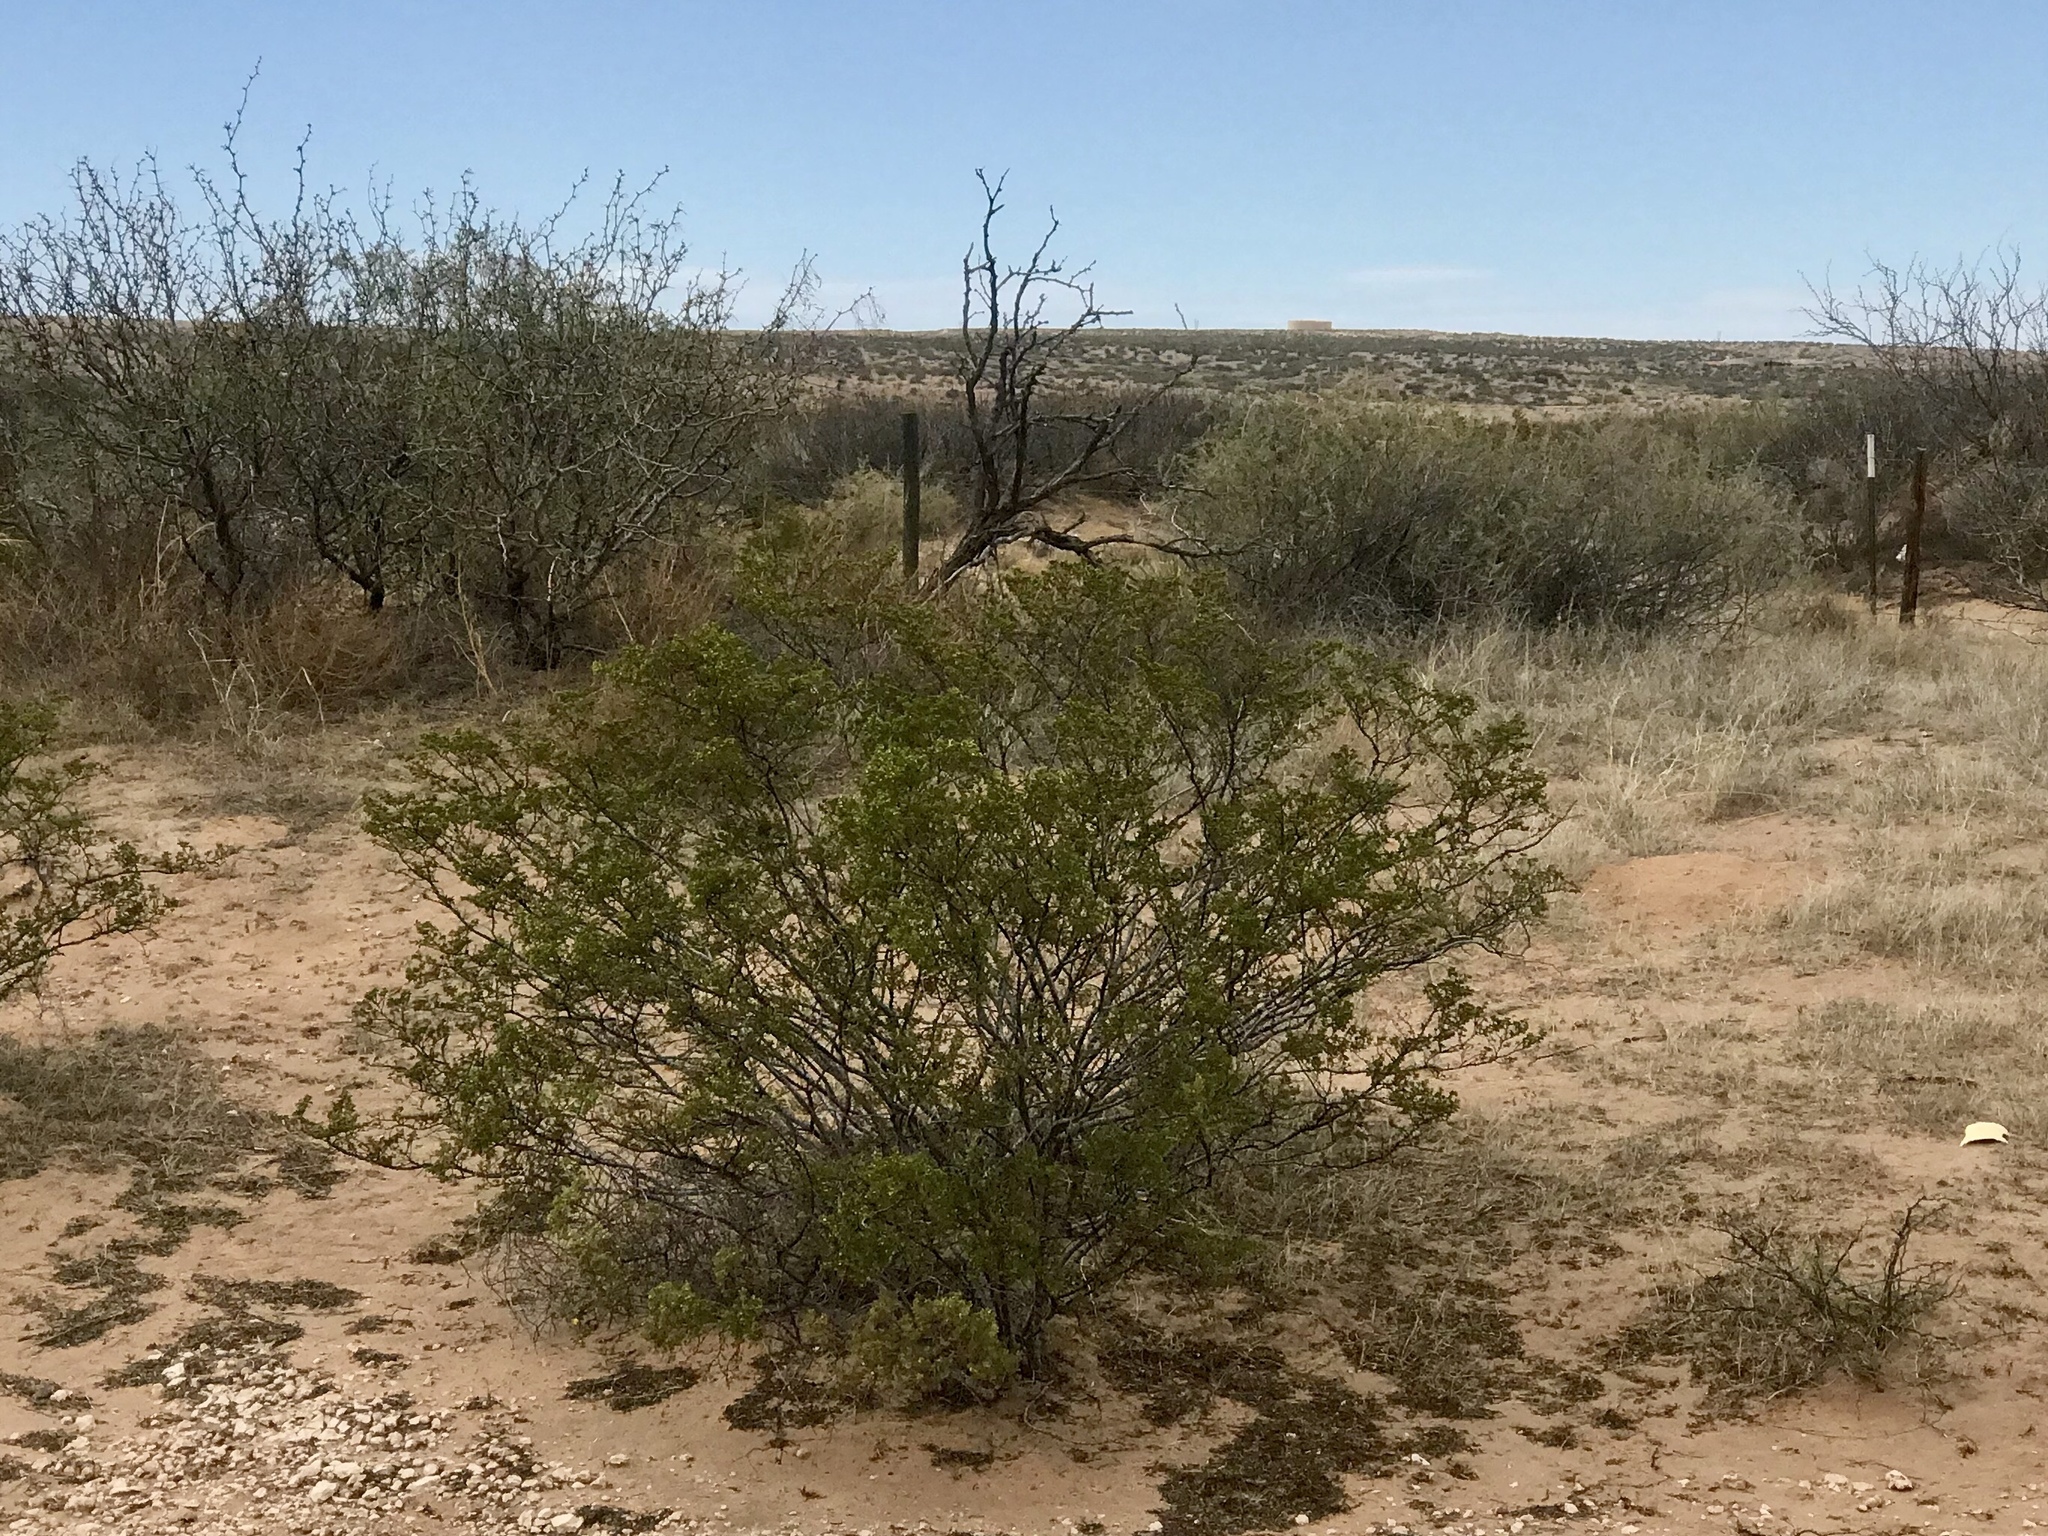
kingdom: Plantae
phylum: Tracheophyta
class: Magnoliopsida
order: Zygophyllales
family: Zygophyllaceae
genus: Larrea
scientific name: Larrea tridentata
